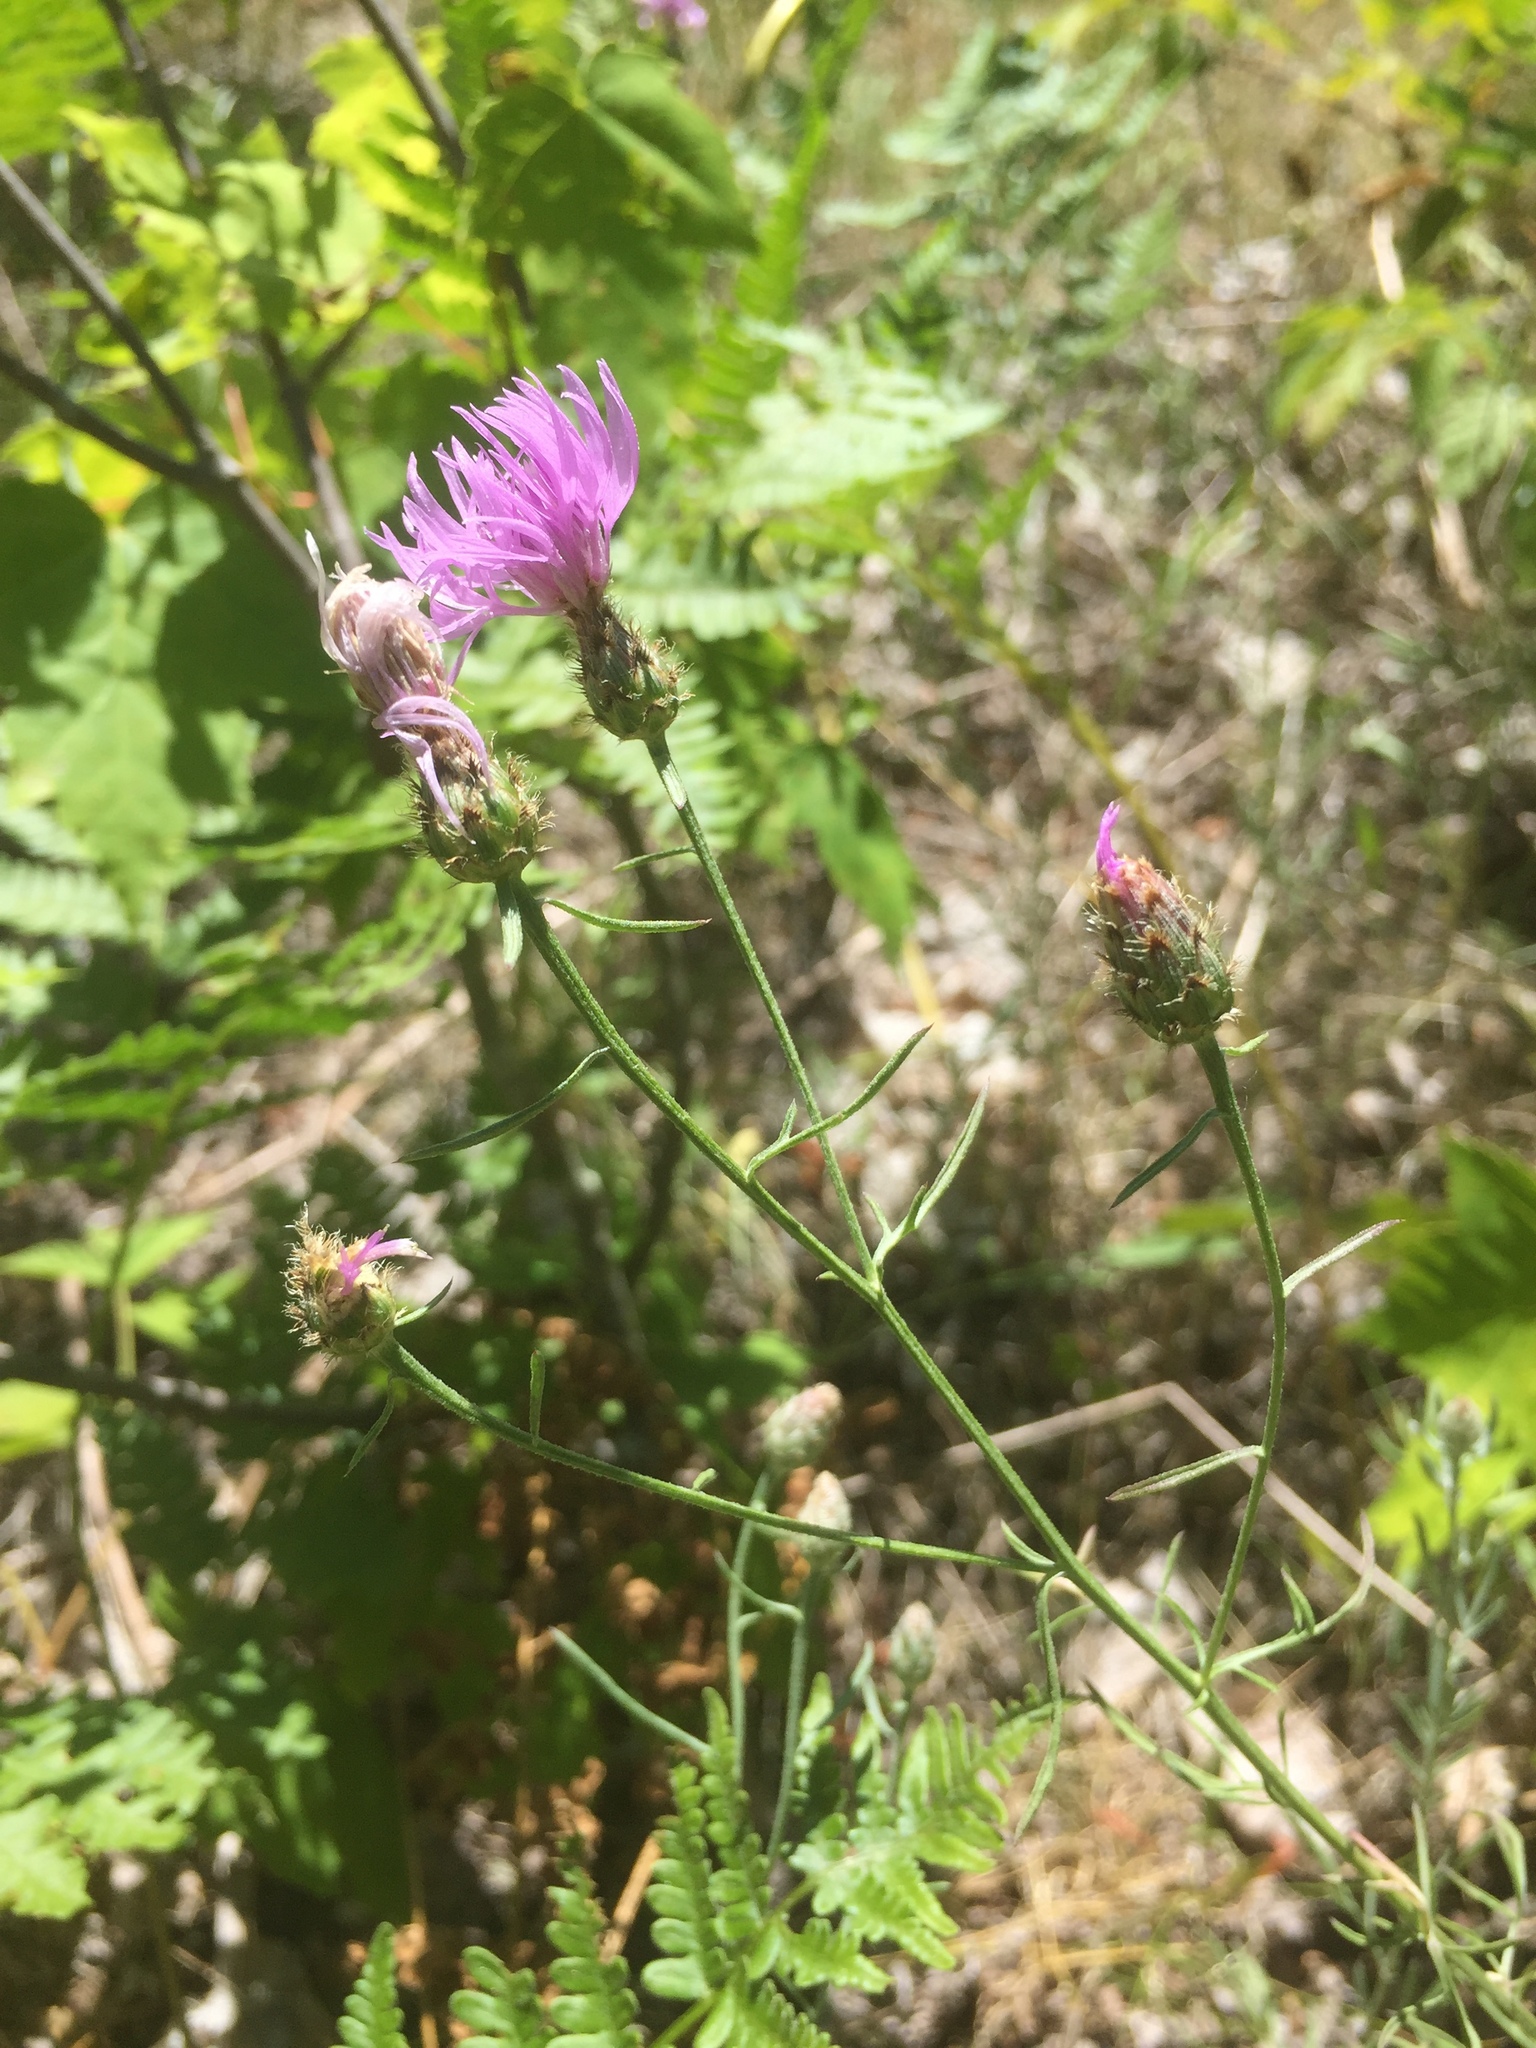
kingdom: Plantae
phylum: Tracheophyta
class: Magnoliopsida
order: Asterales
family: Asteraceae
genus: Centaurea
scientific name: Centaurea stoebe
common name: Spotted knapweed
